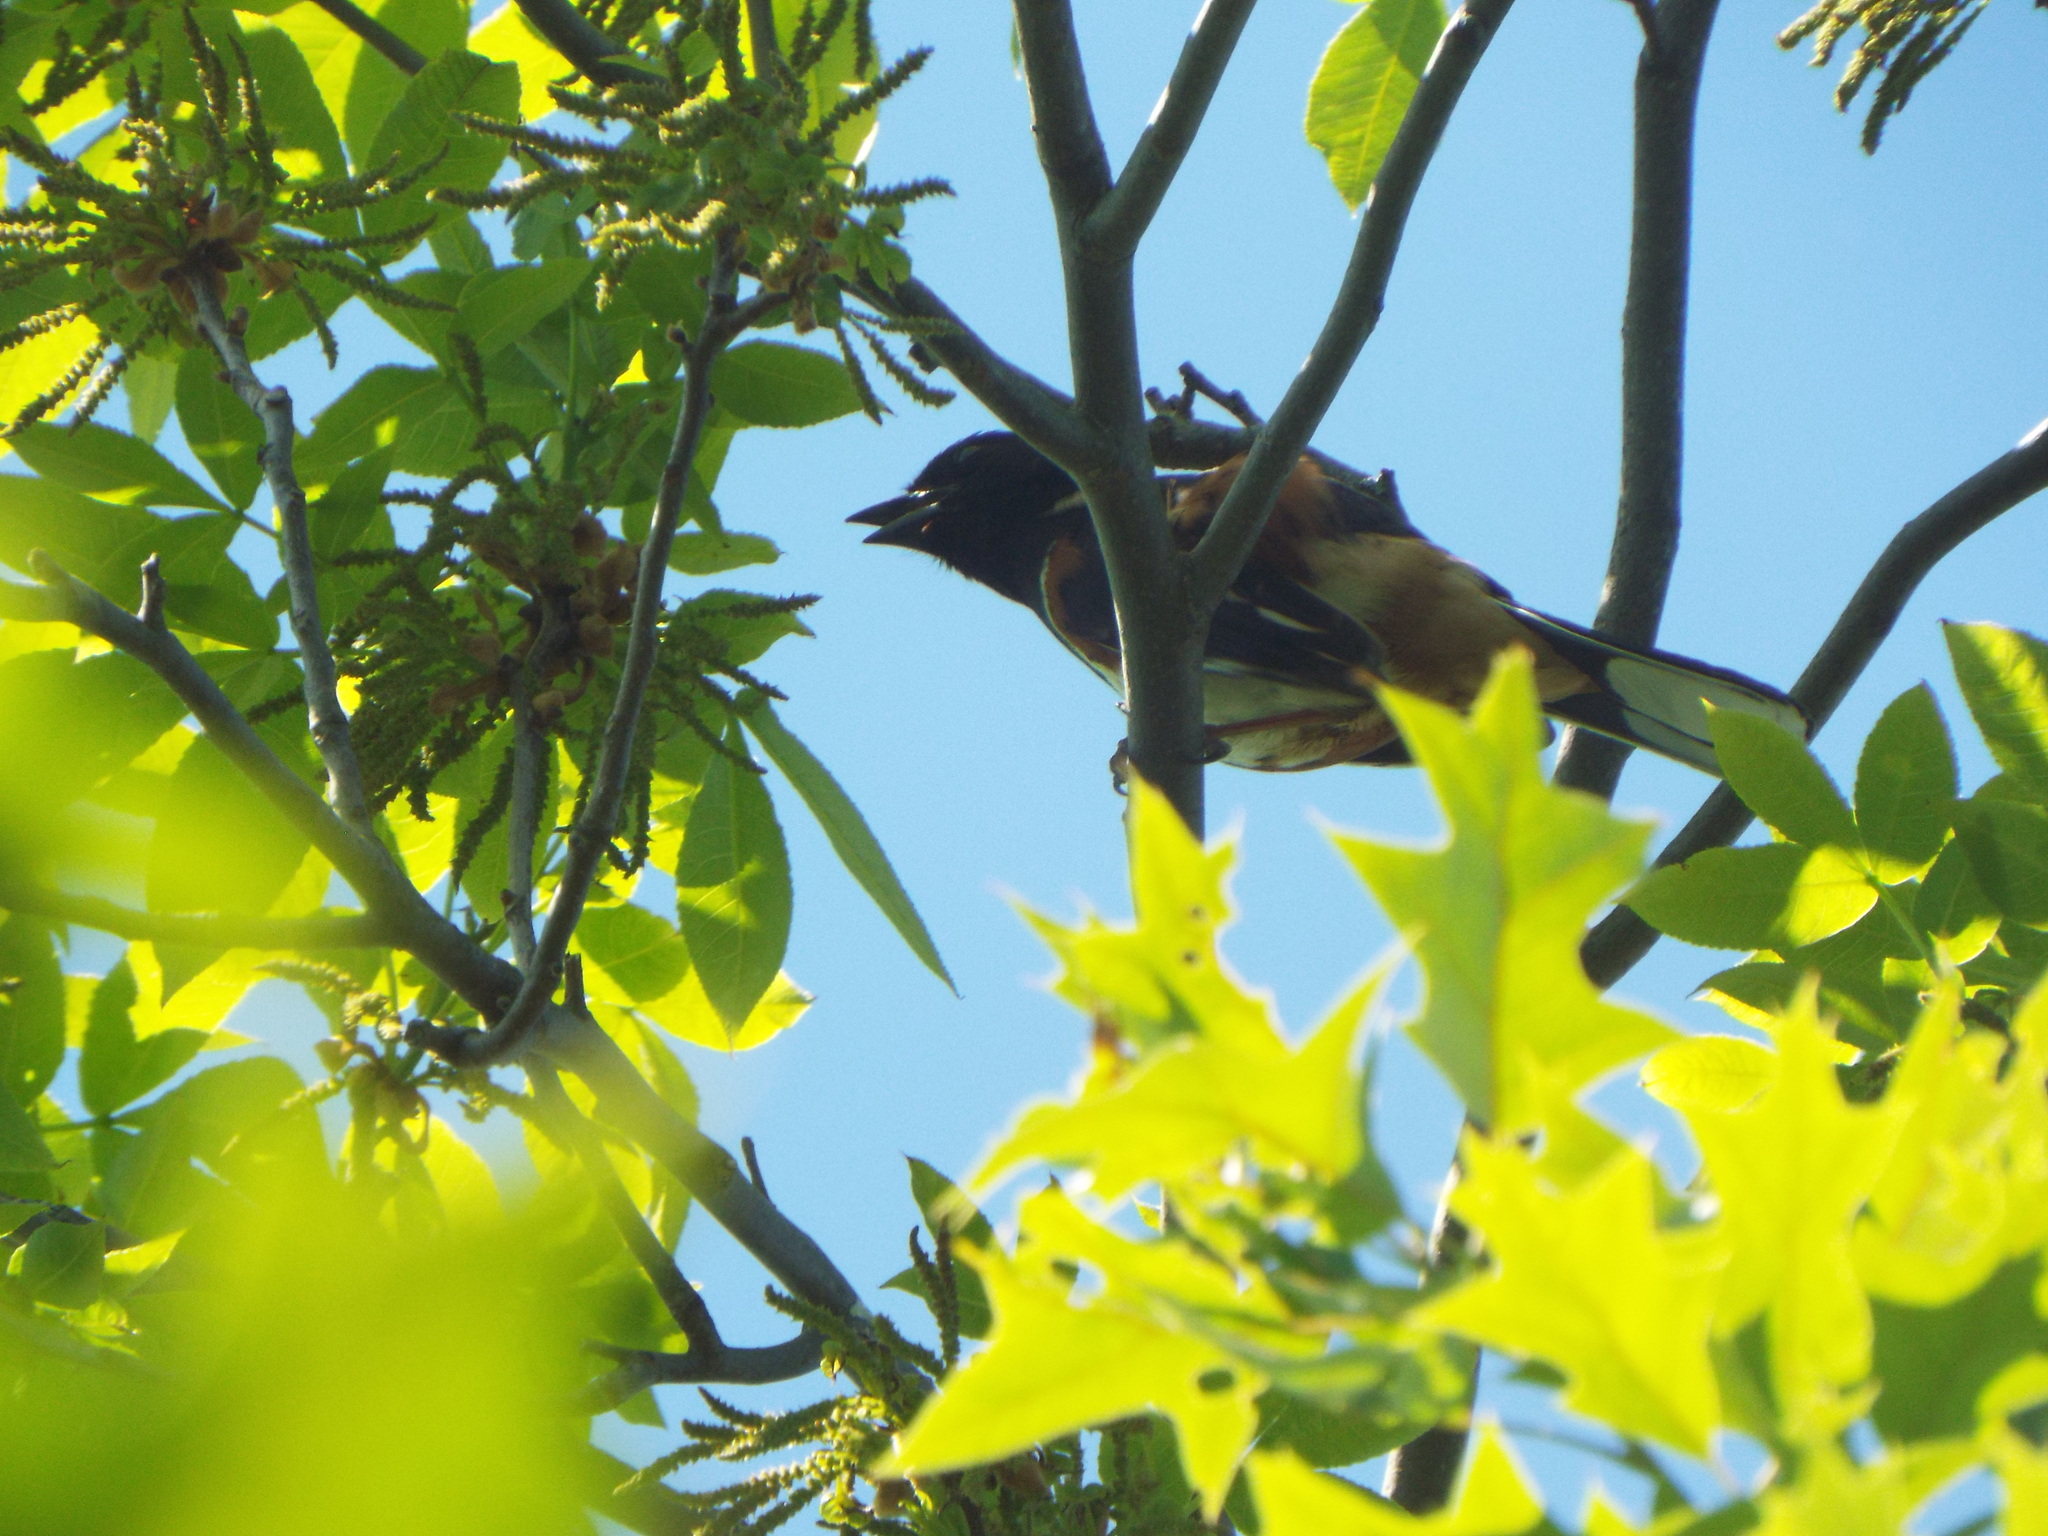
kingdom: Animalia
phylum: Chordata
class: Aves
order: Passeriformes
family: Passerellidae
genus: Pipilo
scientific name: Pipilo erythrophthalmus
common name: Eastern towhee
